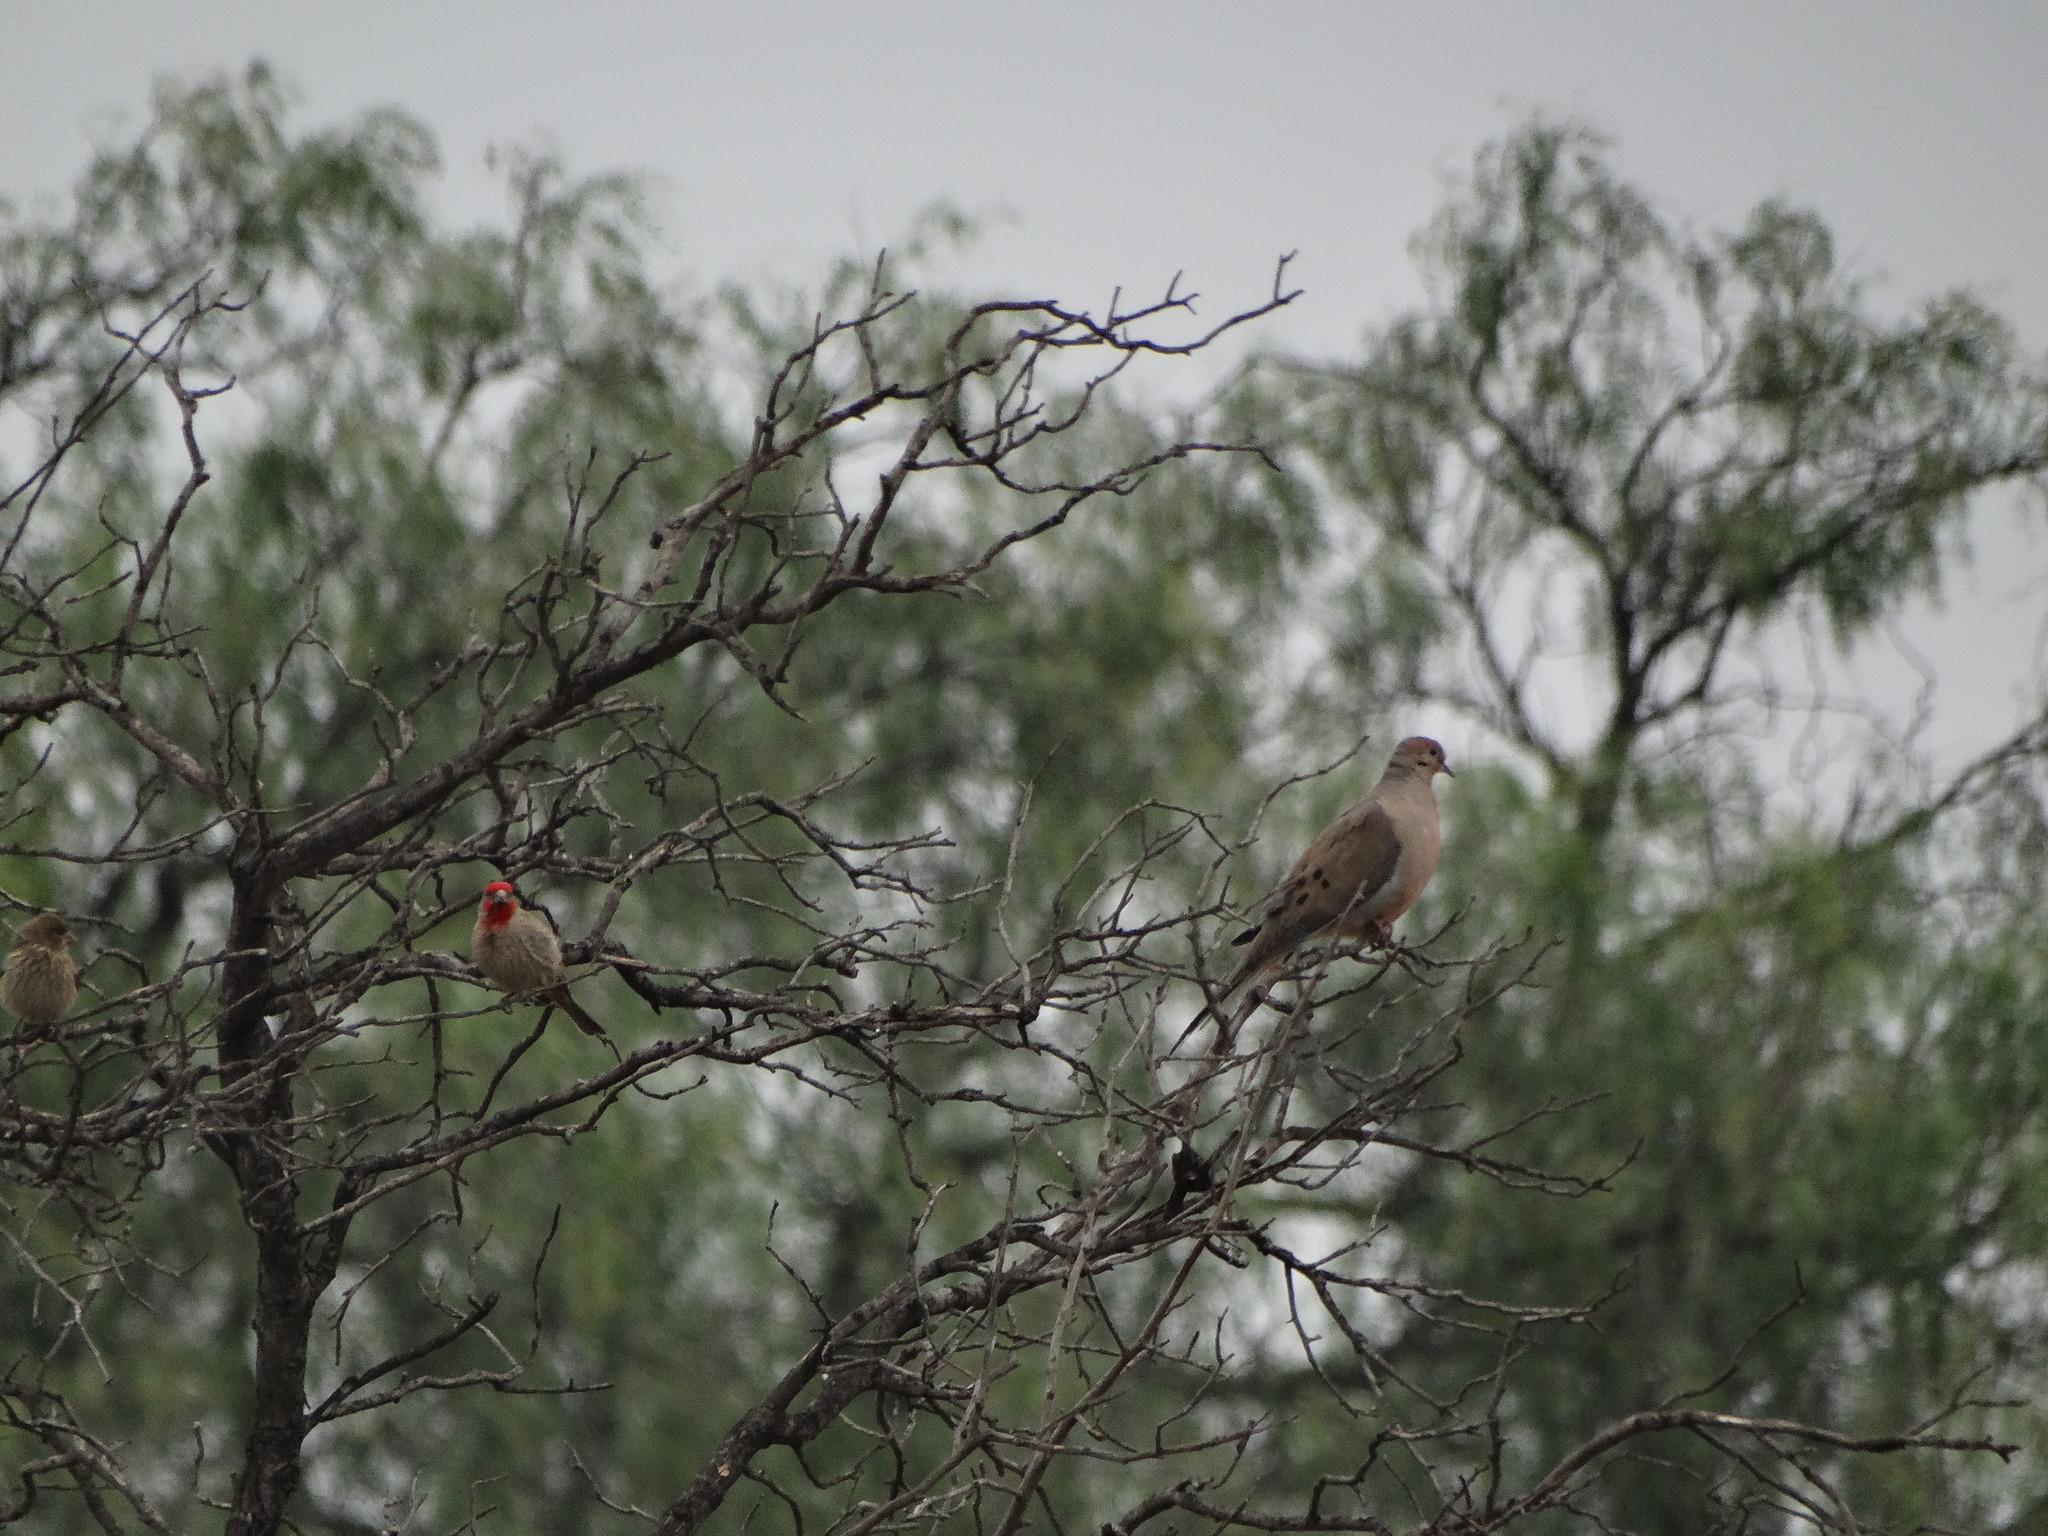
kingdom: Animalia
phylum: Chordata
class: Aves
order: Passeriformes
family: Fringillidae
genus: Haemorhous
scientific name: Haemorhous mexicanus
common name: House finch
